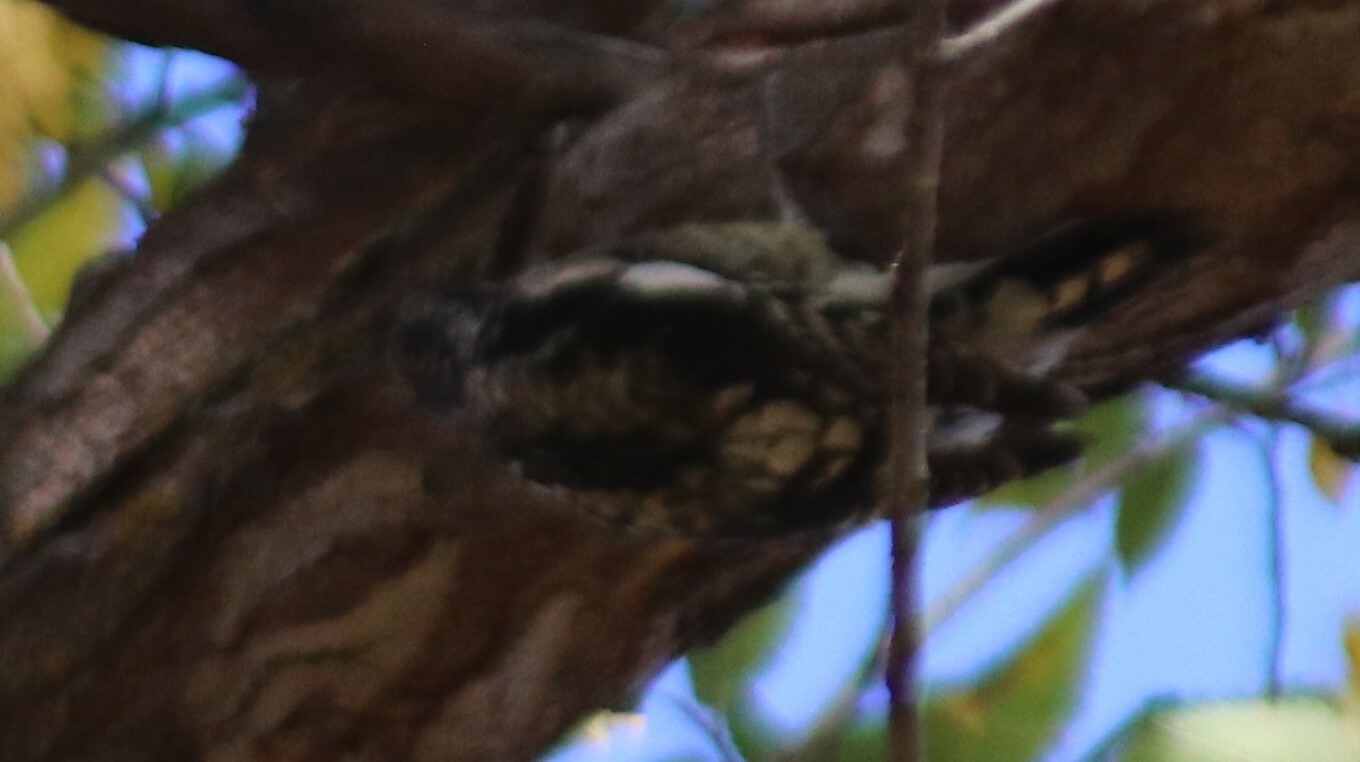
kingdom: Animalia
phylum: Chordata
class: Aves
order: Piciformes
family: Picidae
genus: Sphyrapicus
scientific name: Sphyrapicus varius
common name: Yellow-bellied sapsucker
